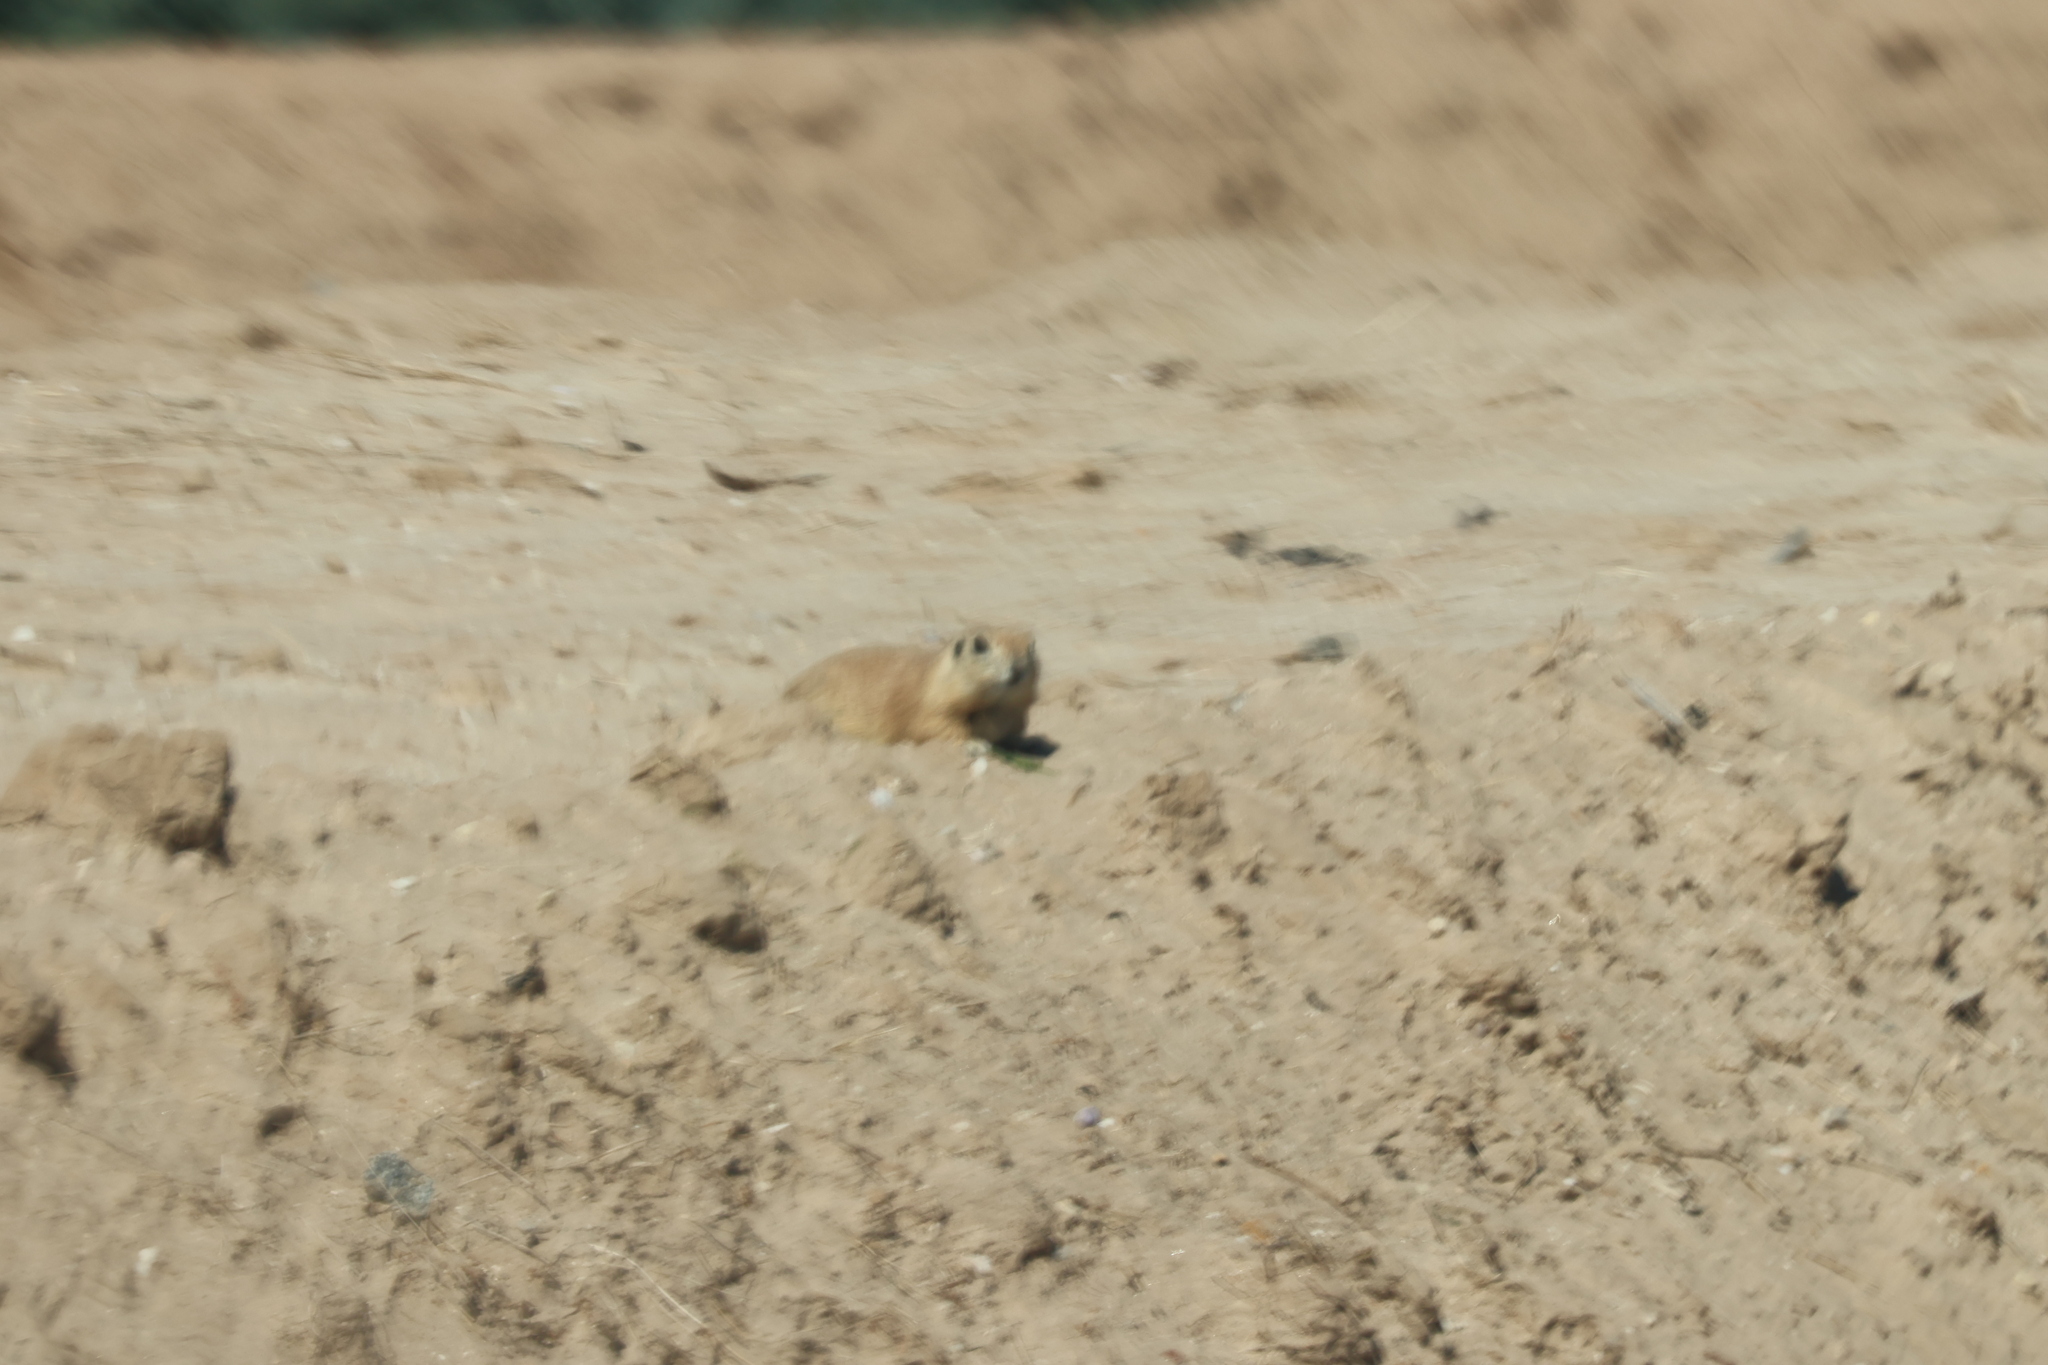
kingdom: Animalia
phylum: Chordata
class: Mammalia
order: Rodentia
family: Sciuridae
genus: Xerospermophilus
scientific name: Xerospermophilus tereticaudus
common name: Round-tailed ground squirrel
